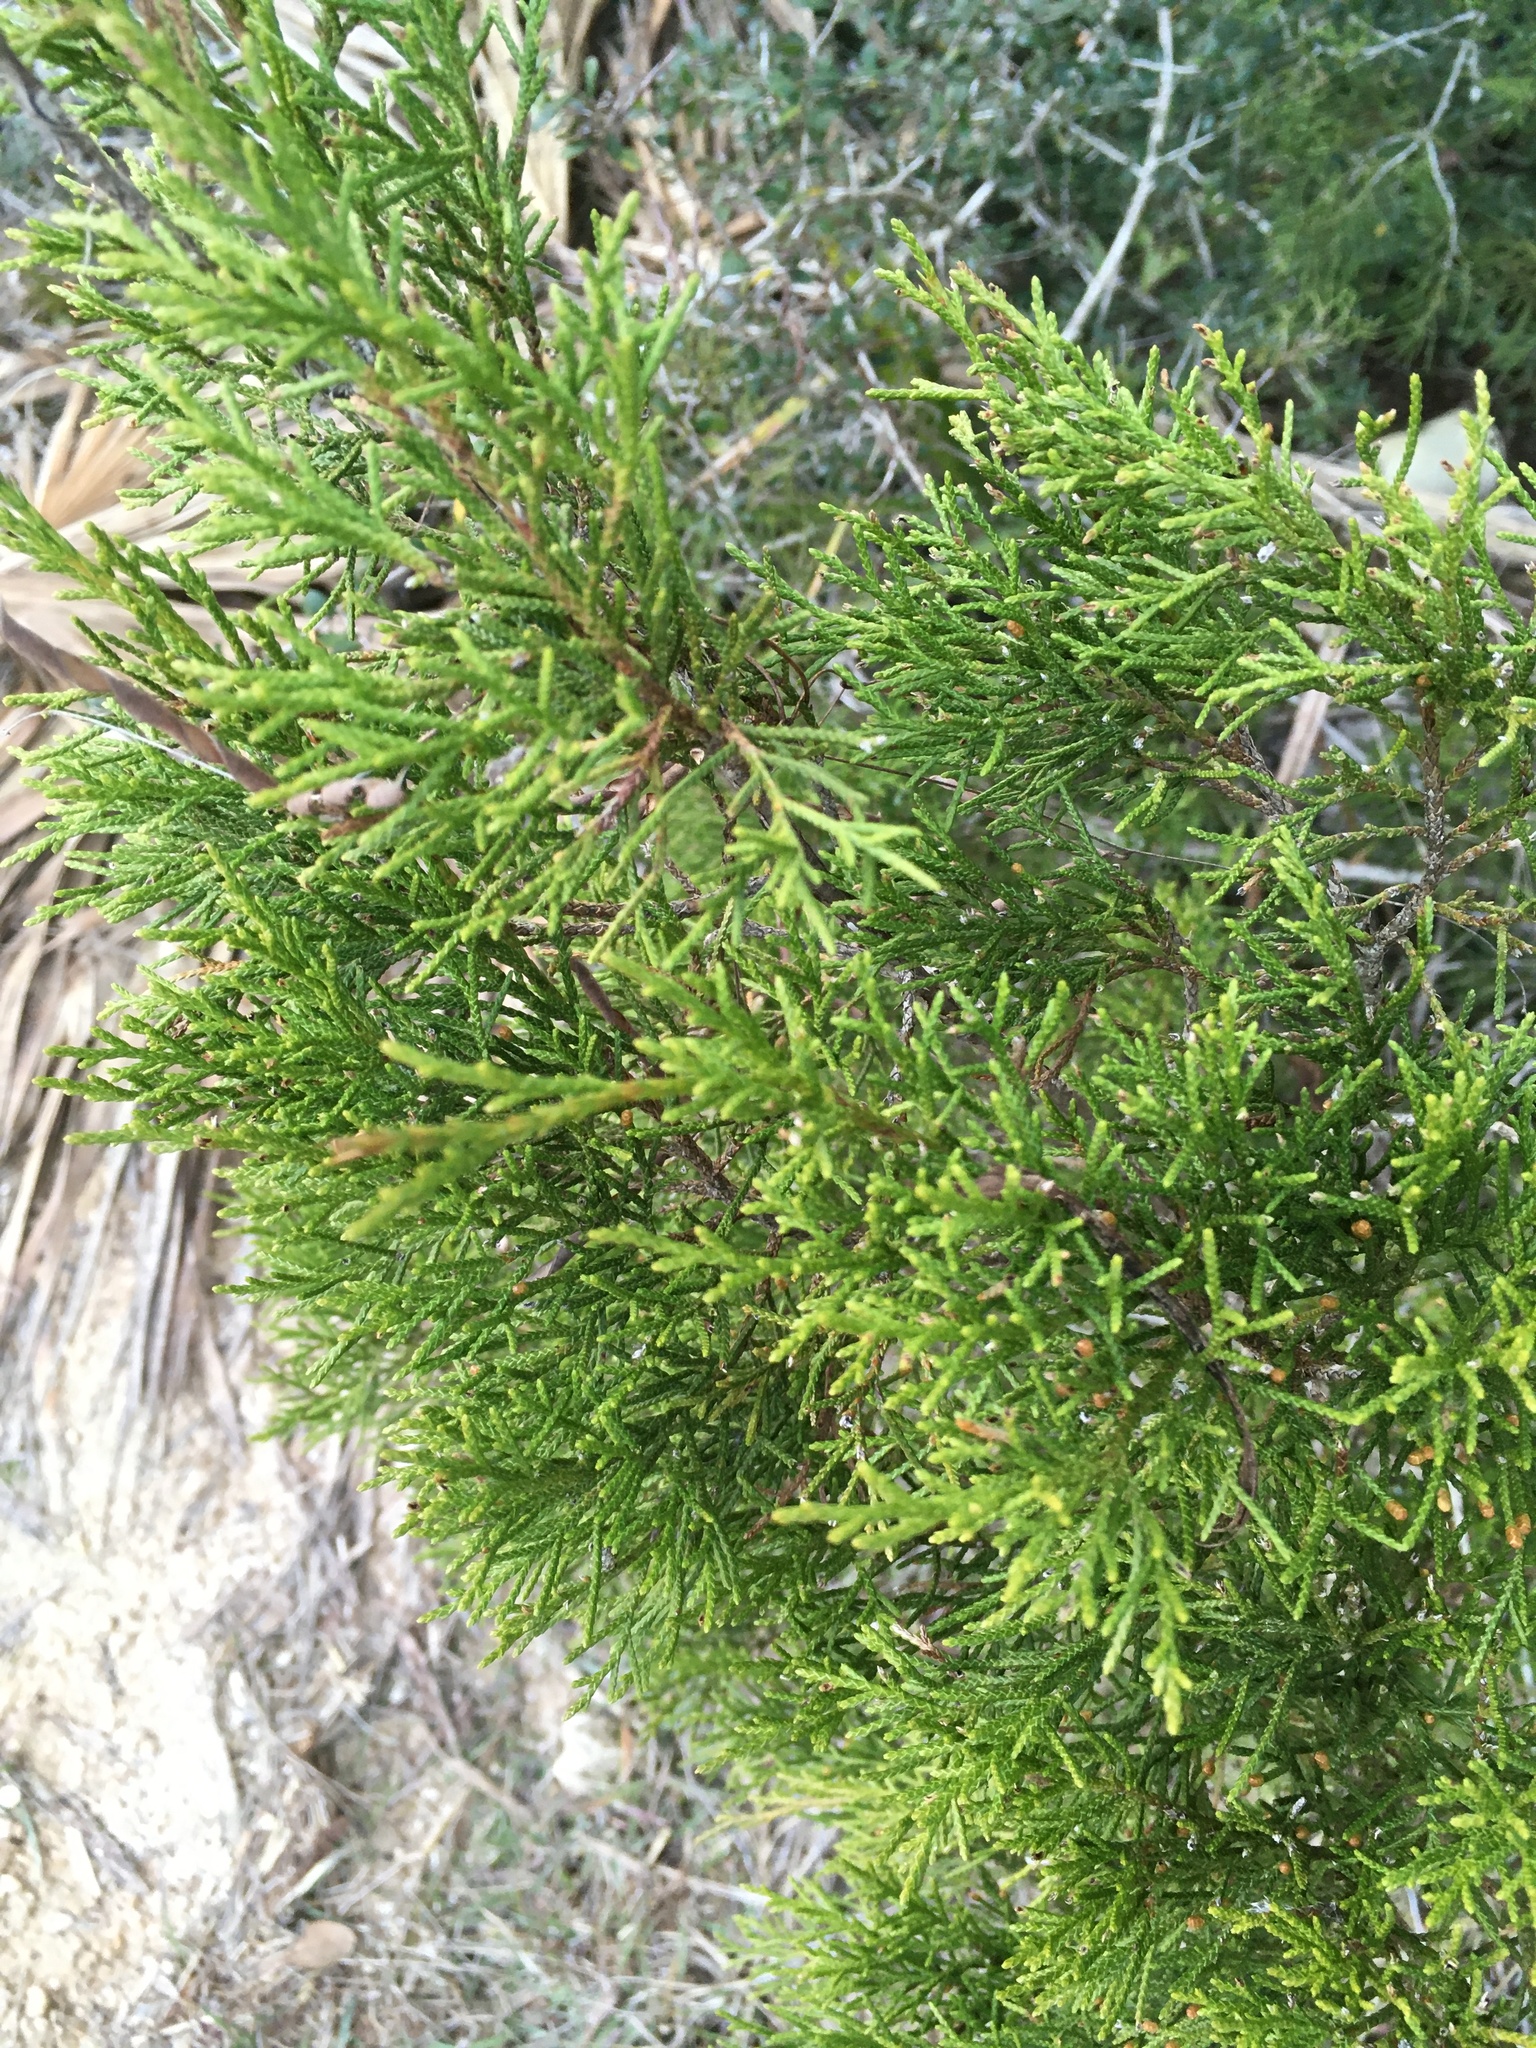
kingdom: Plantae
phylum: Tracheophyta
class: Pinopsida
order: Pinales
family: Cupressaceae
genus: Juniperus
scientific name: Juniperus virginiana
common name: Red juniper
